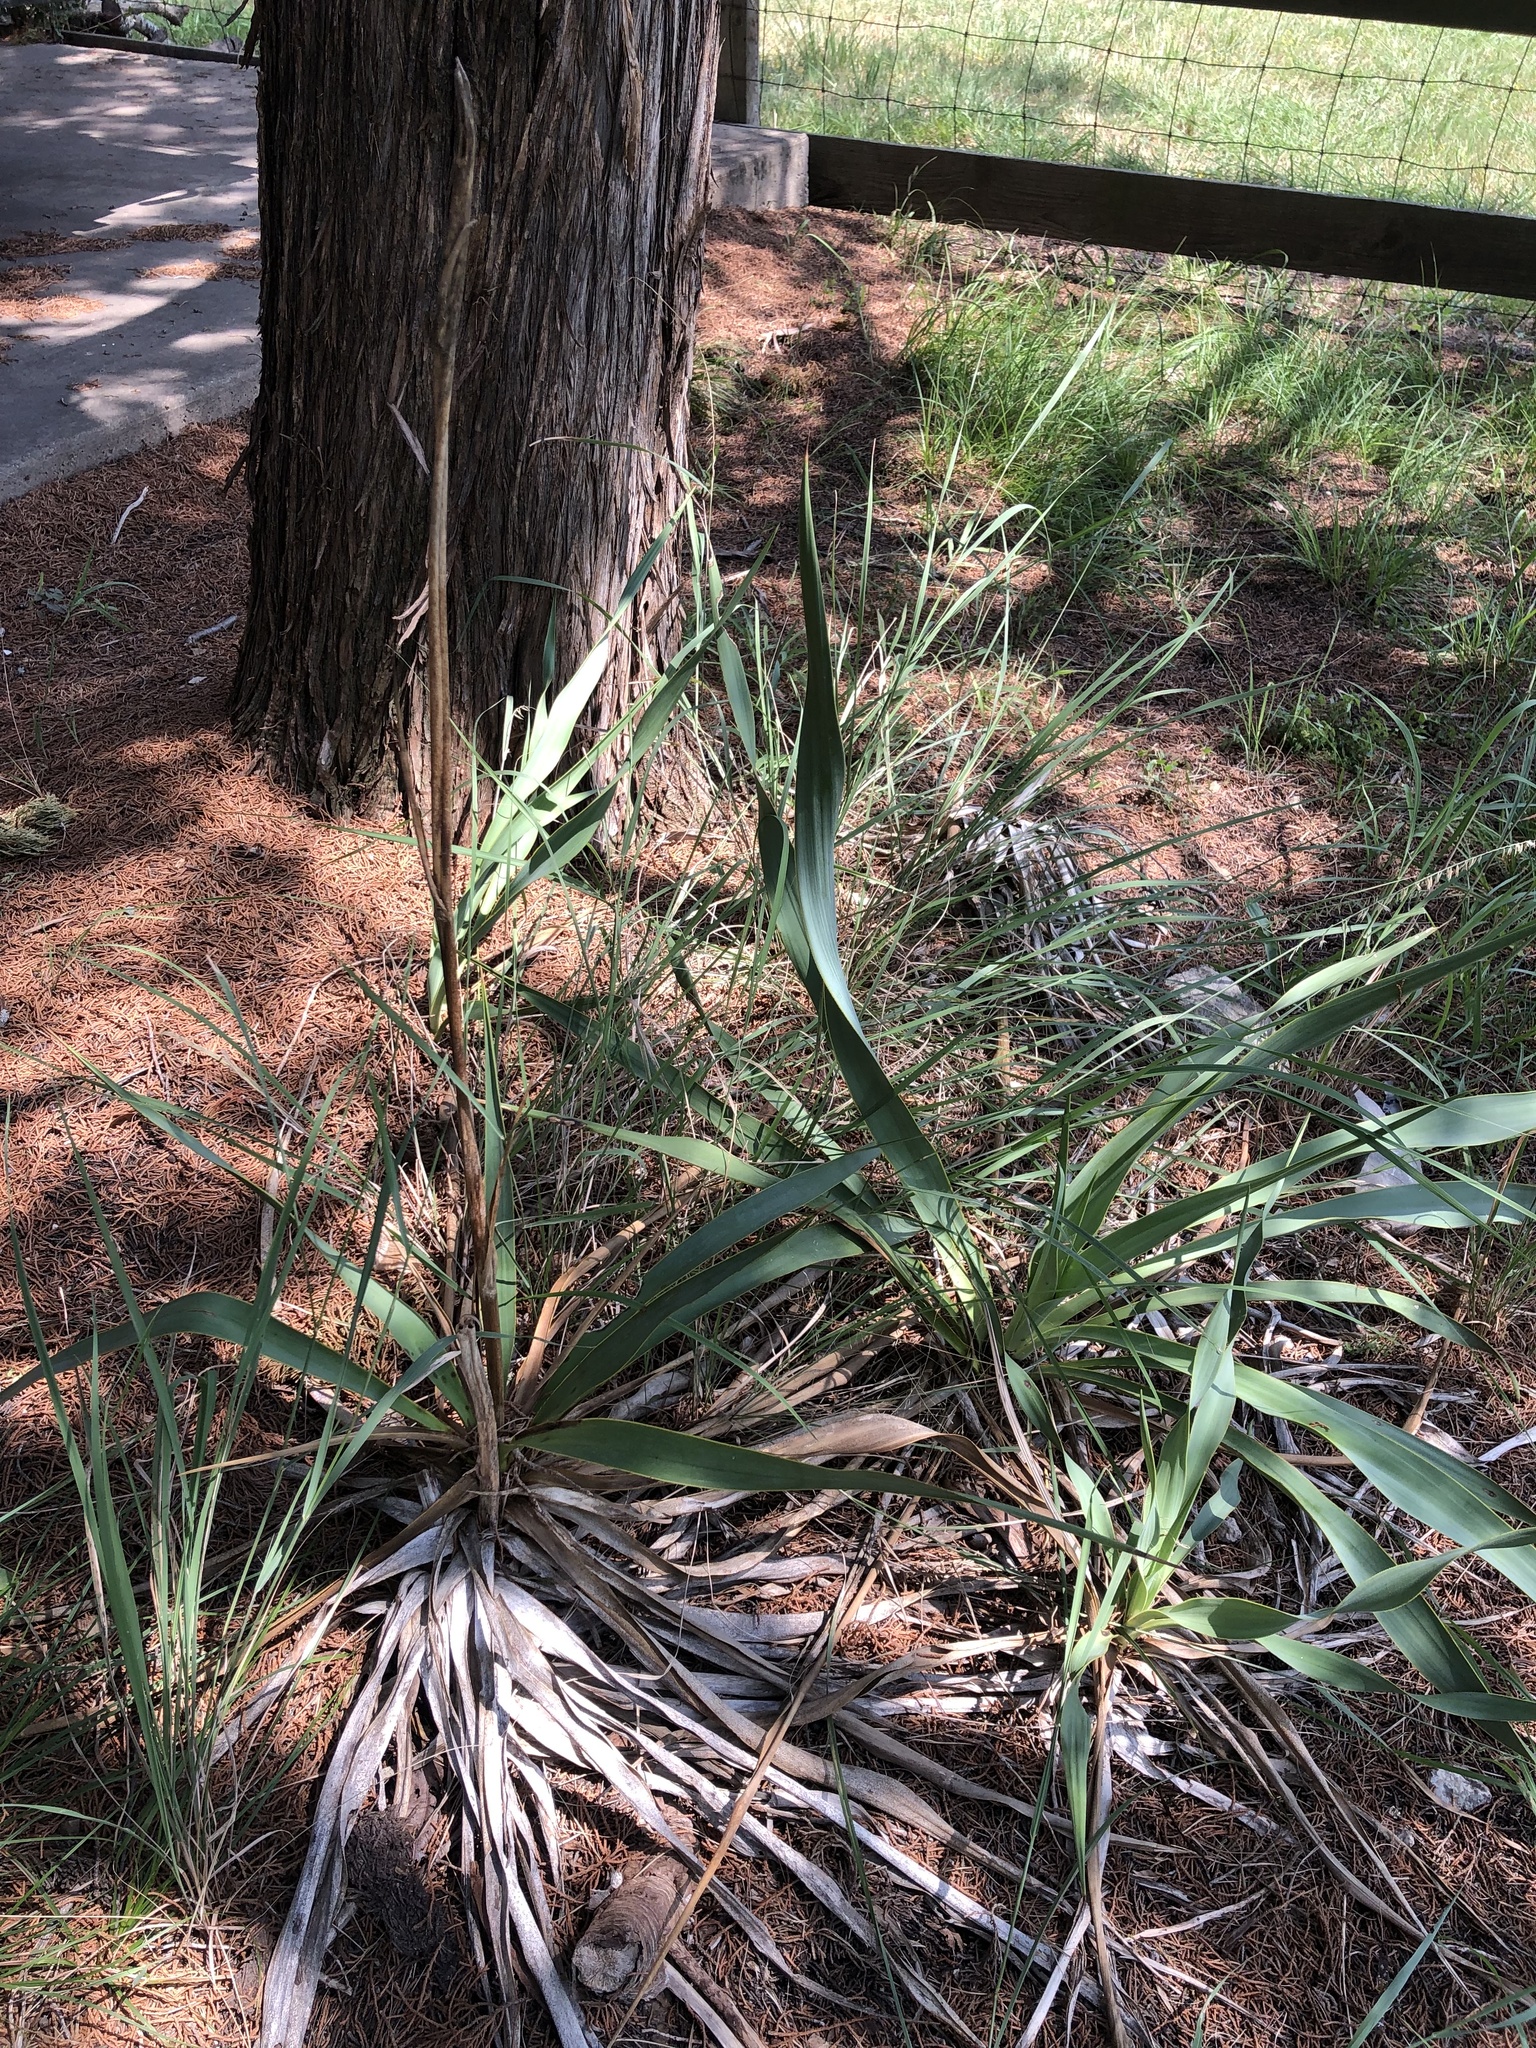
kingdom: Plantae
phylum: Tracheophyta
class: Liliopsida
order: Asparagales
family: Asparagaceae
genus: Yucca
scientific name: Yucca rupicola
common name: Twisted-leaf spanish-dagger
